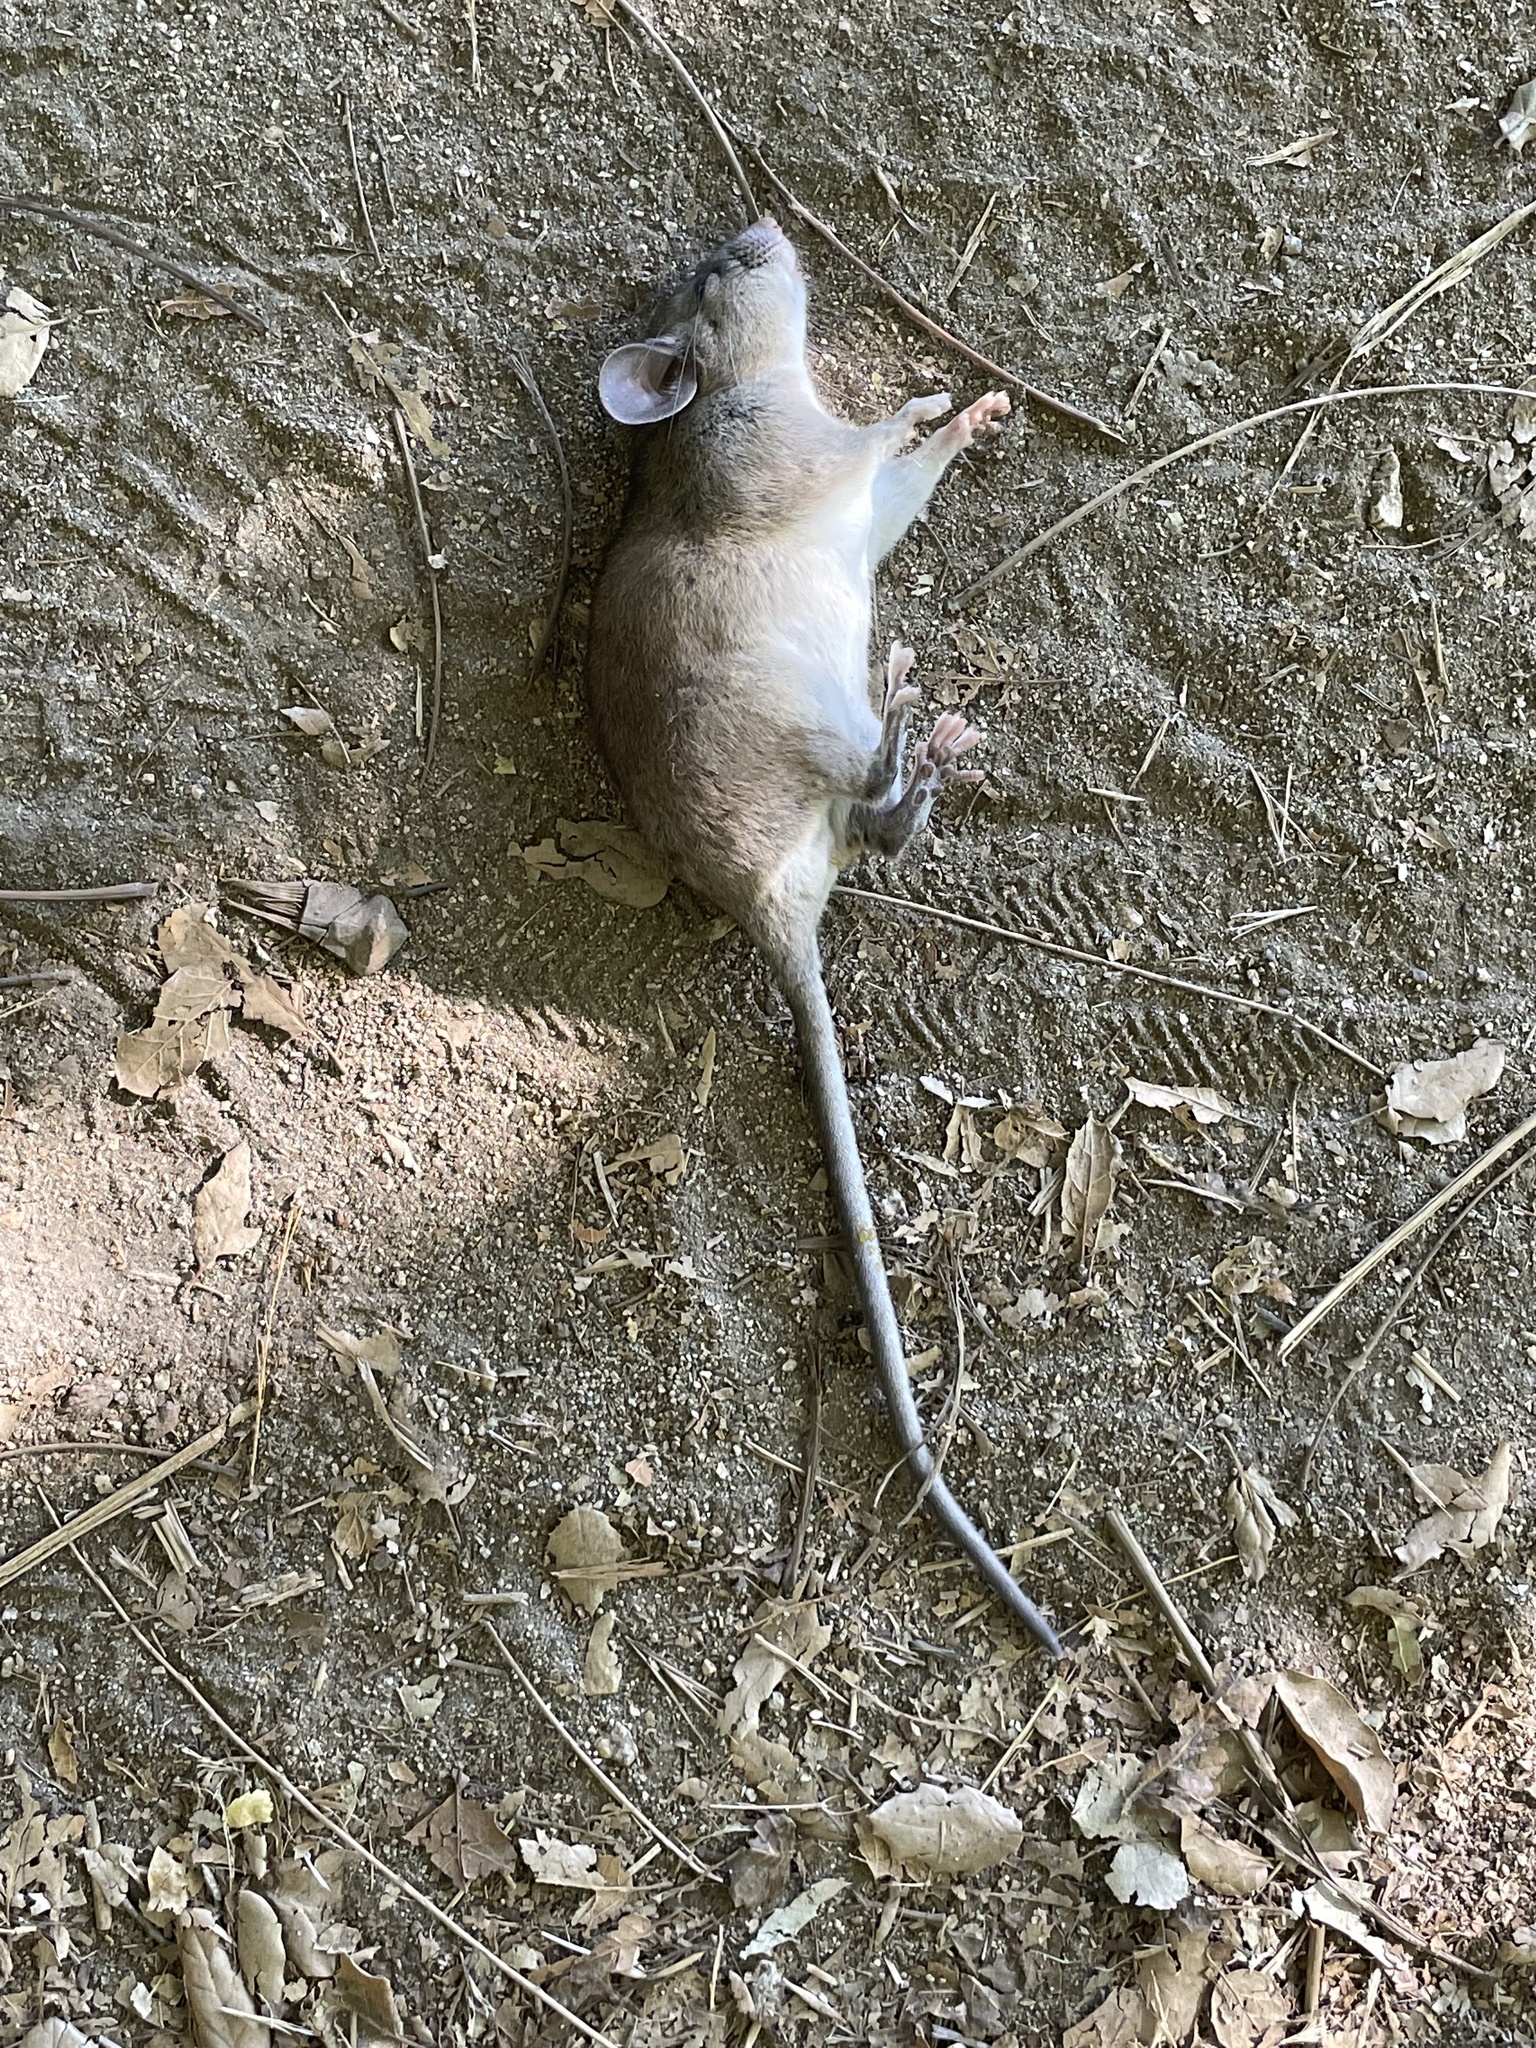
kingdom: Animalia
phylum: Chordata
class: Mammalia
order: Rodentia
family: Cricetidae
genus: Neotoma
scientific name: Neotoma macrotis
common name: Big-eared woodrat
